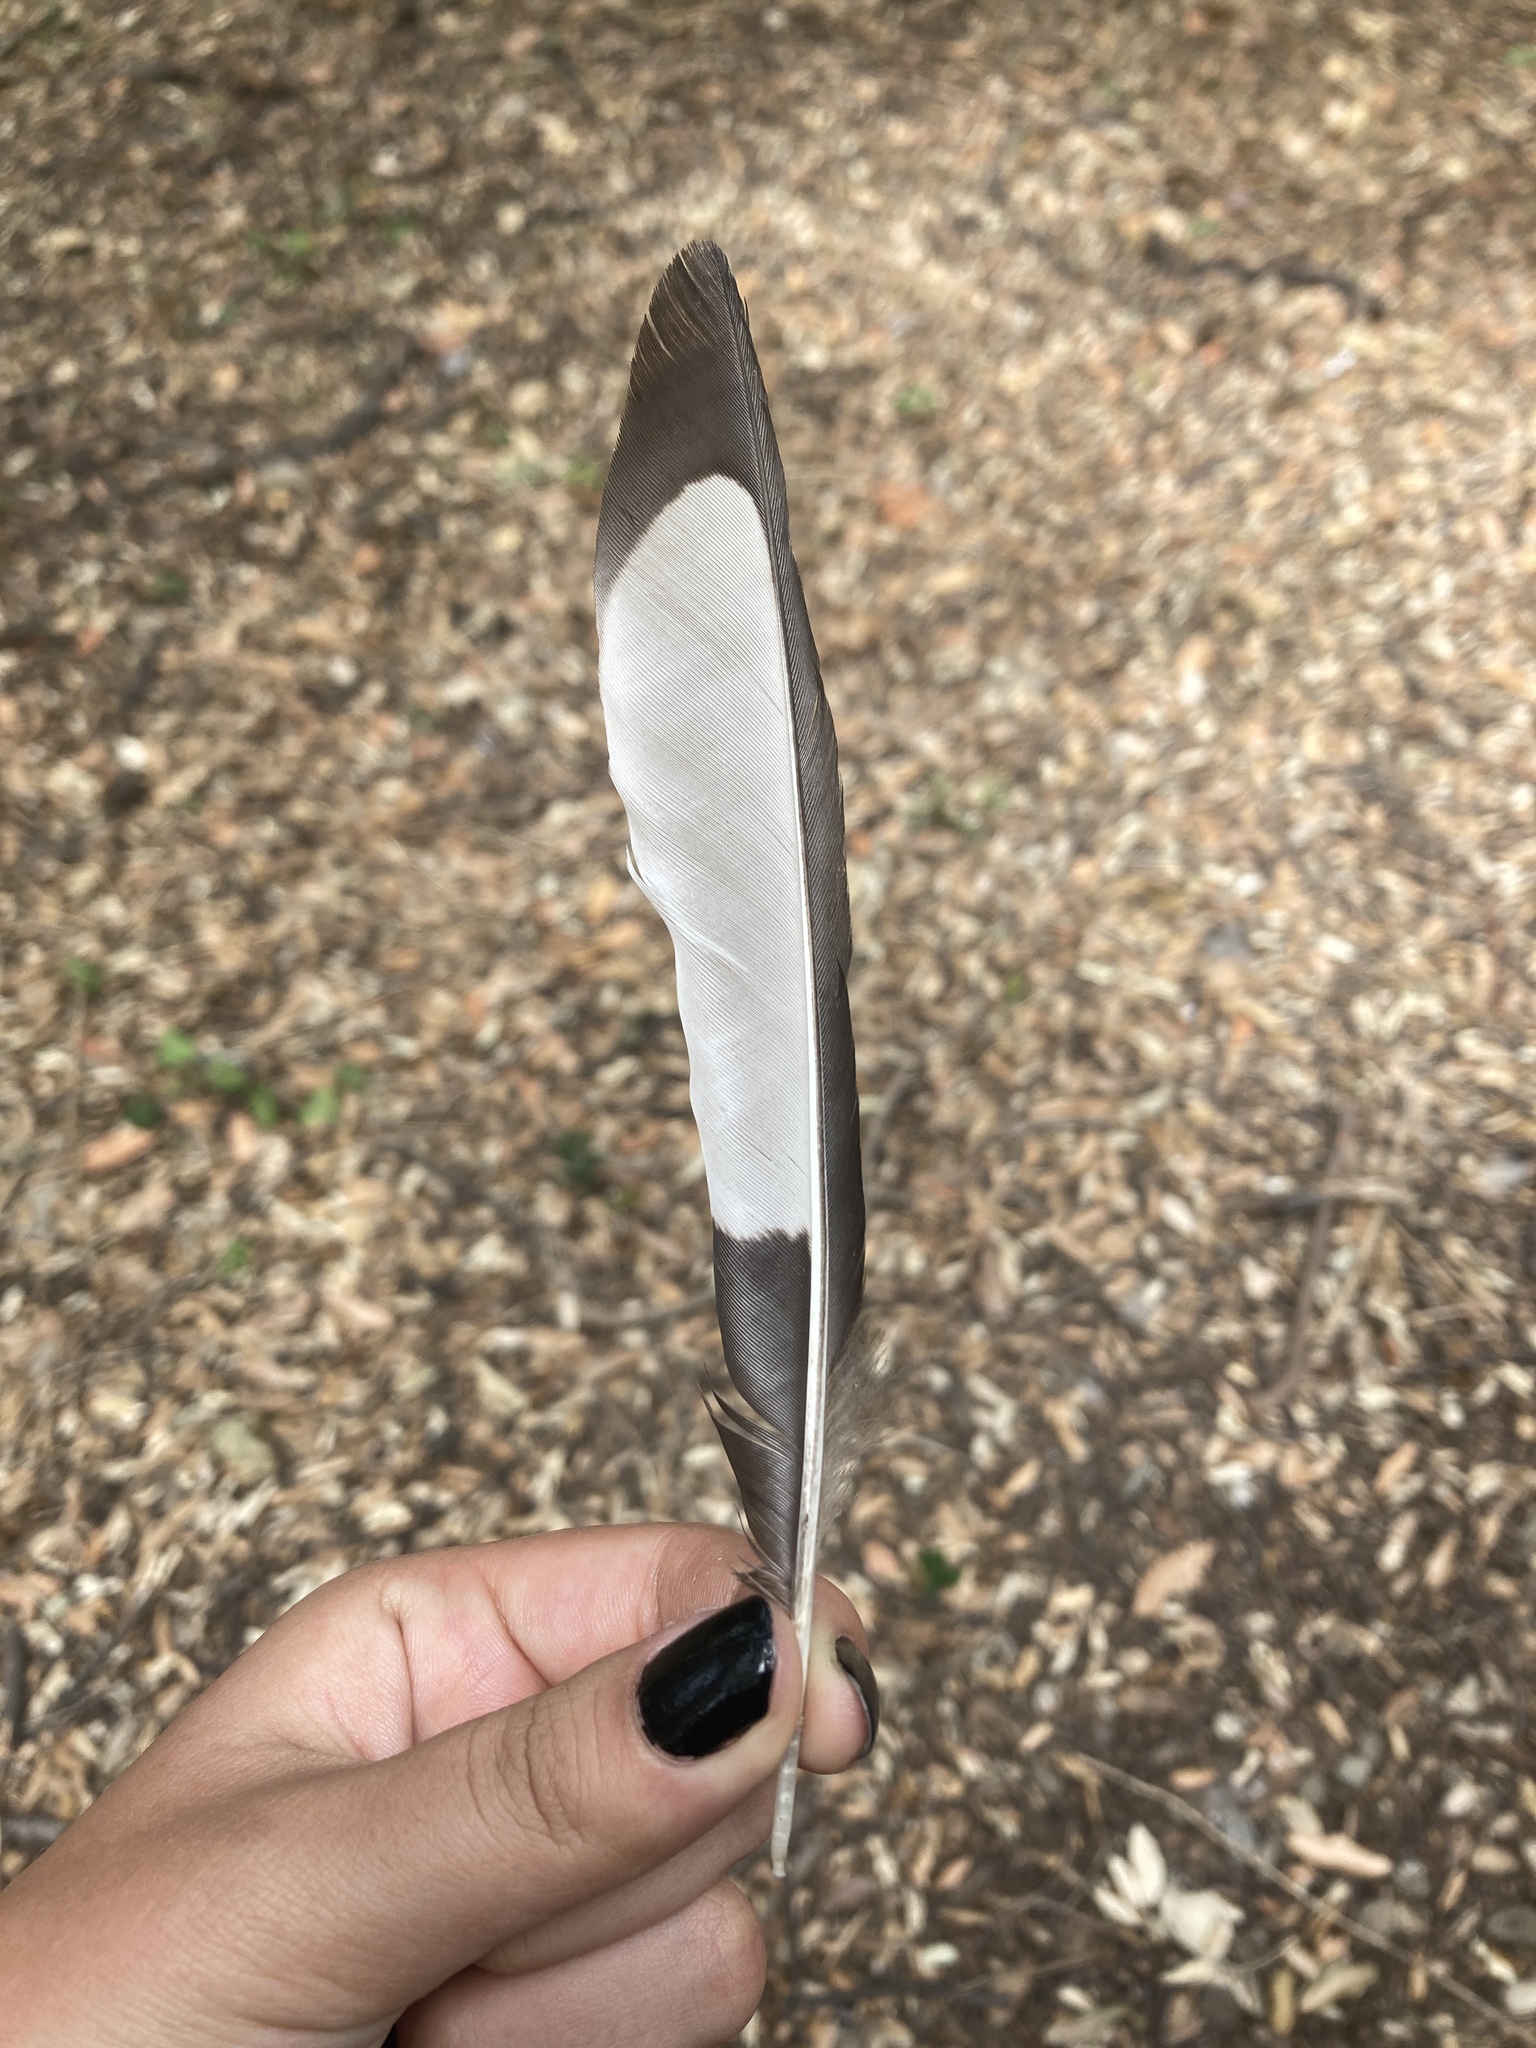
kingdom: Animalia
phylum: Chordata
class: Aves
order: Passeriformes
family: Corvidae
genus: Pica
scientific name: Pica pica
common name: Eurasian magpie
